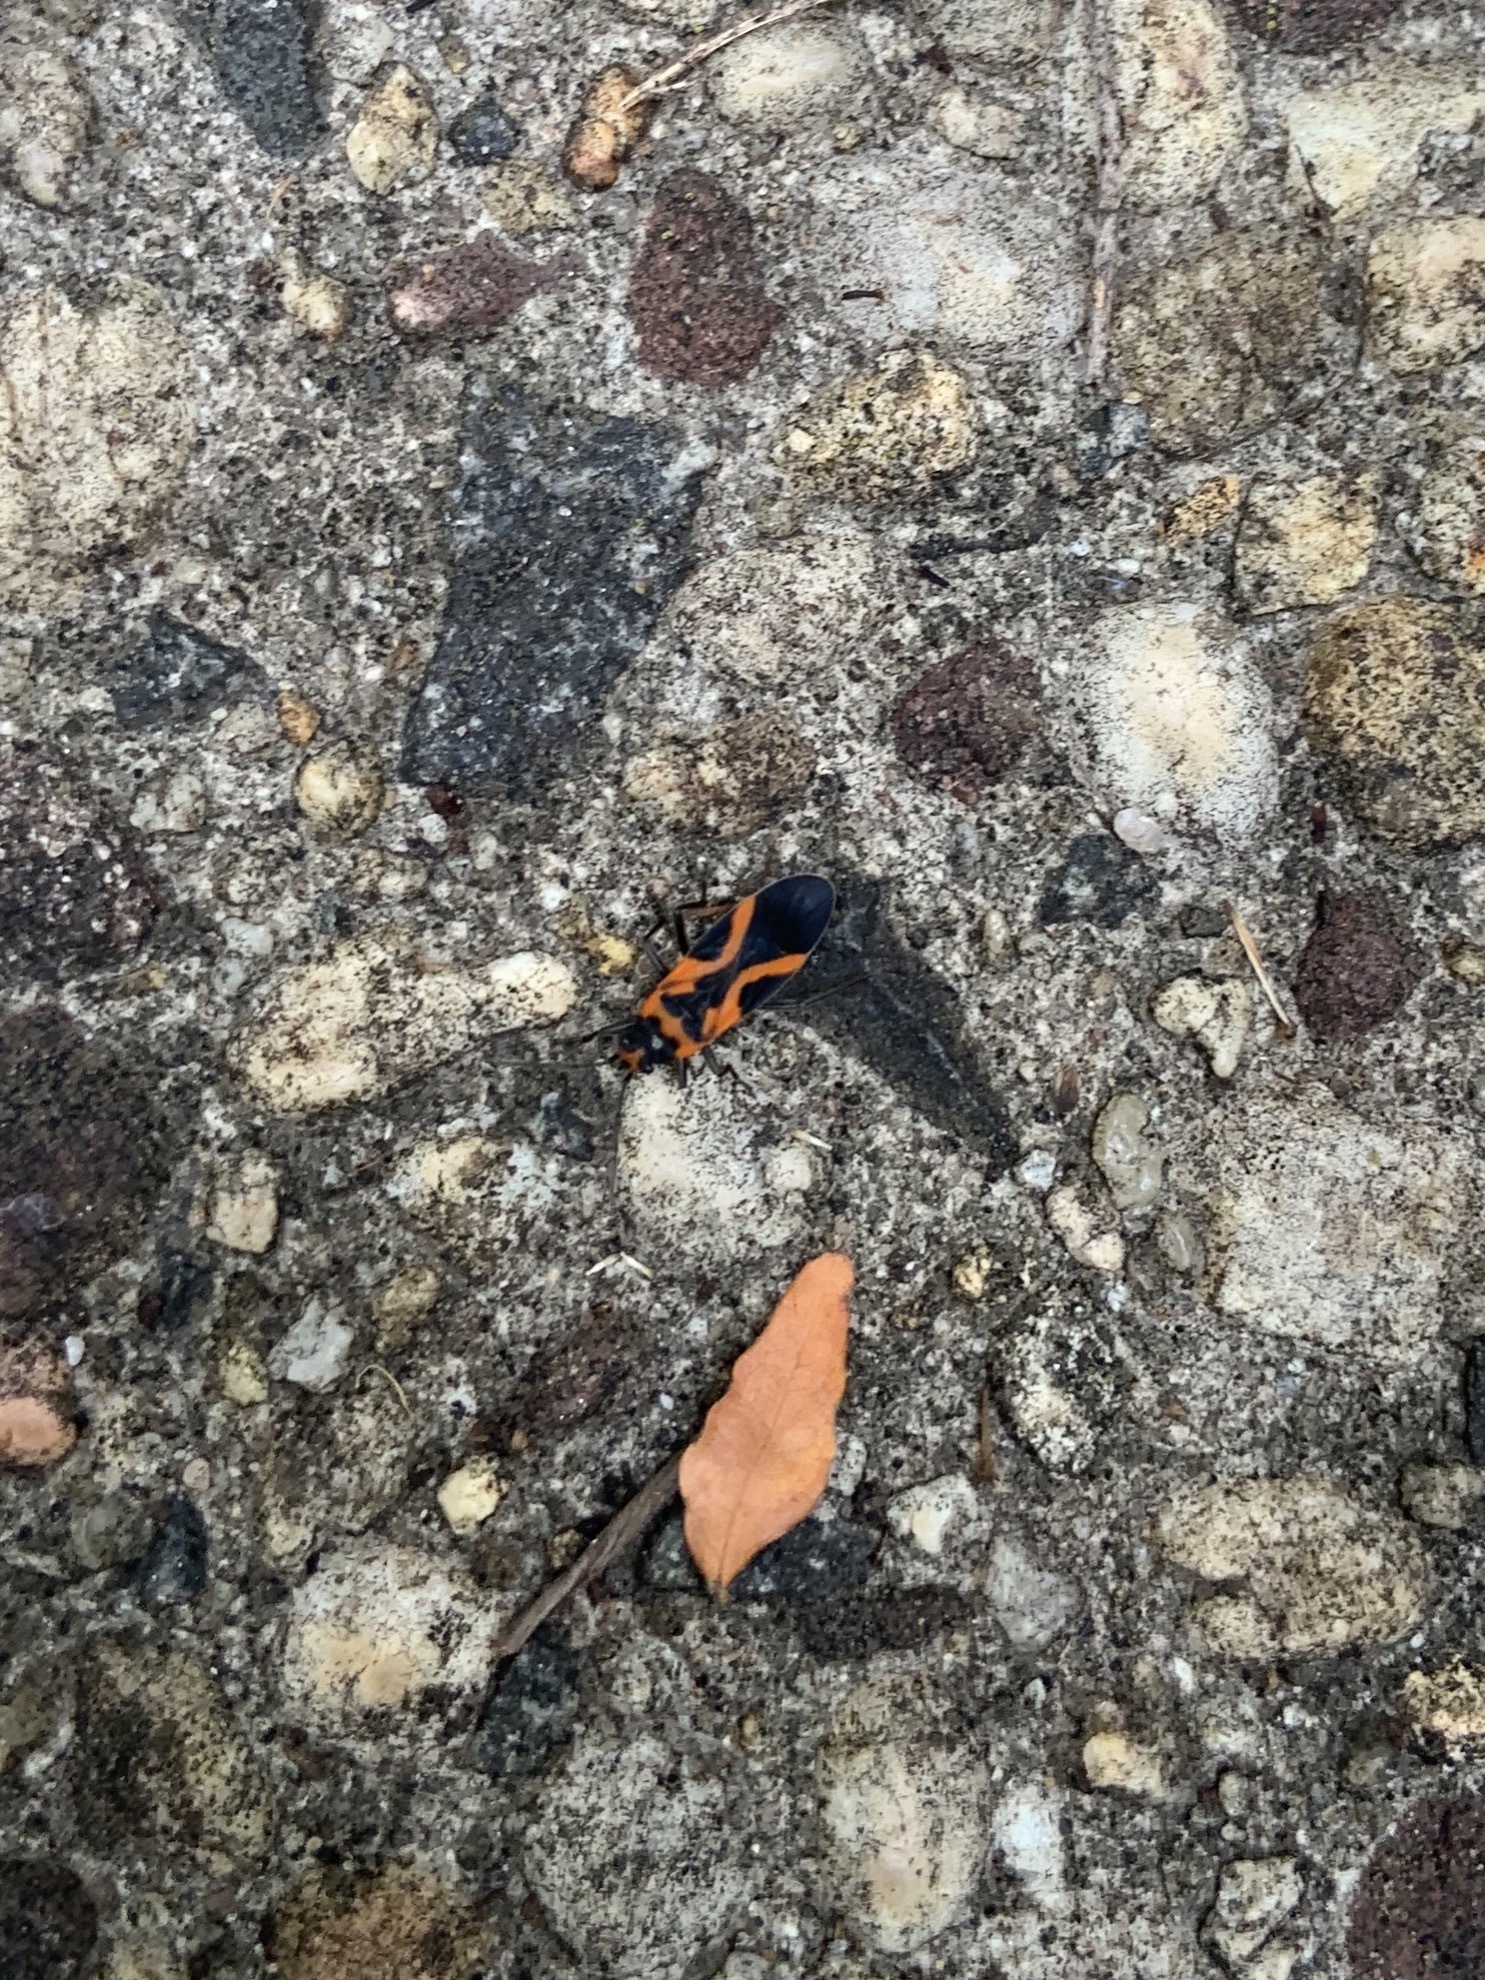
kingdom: Animalia
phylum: Arthropoda
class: Insecta
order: Hemiptera
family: Lygaeidae
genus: Lygaeus
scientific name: Lygaeus turcicus
